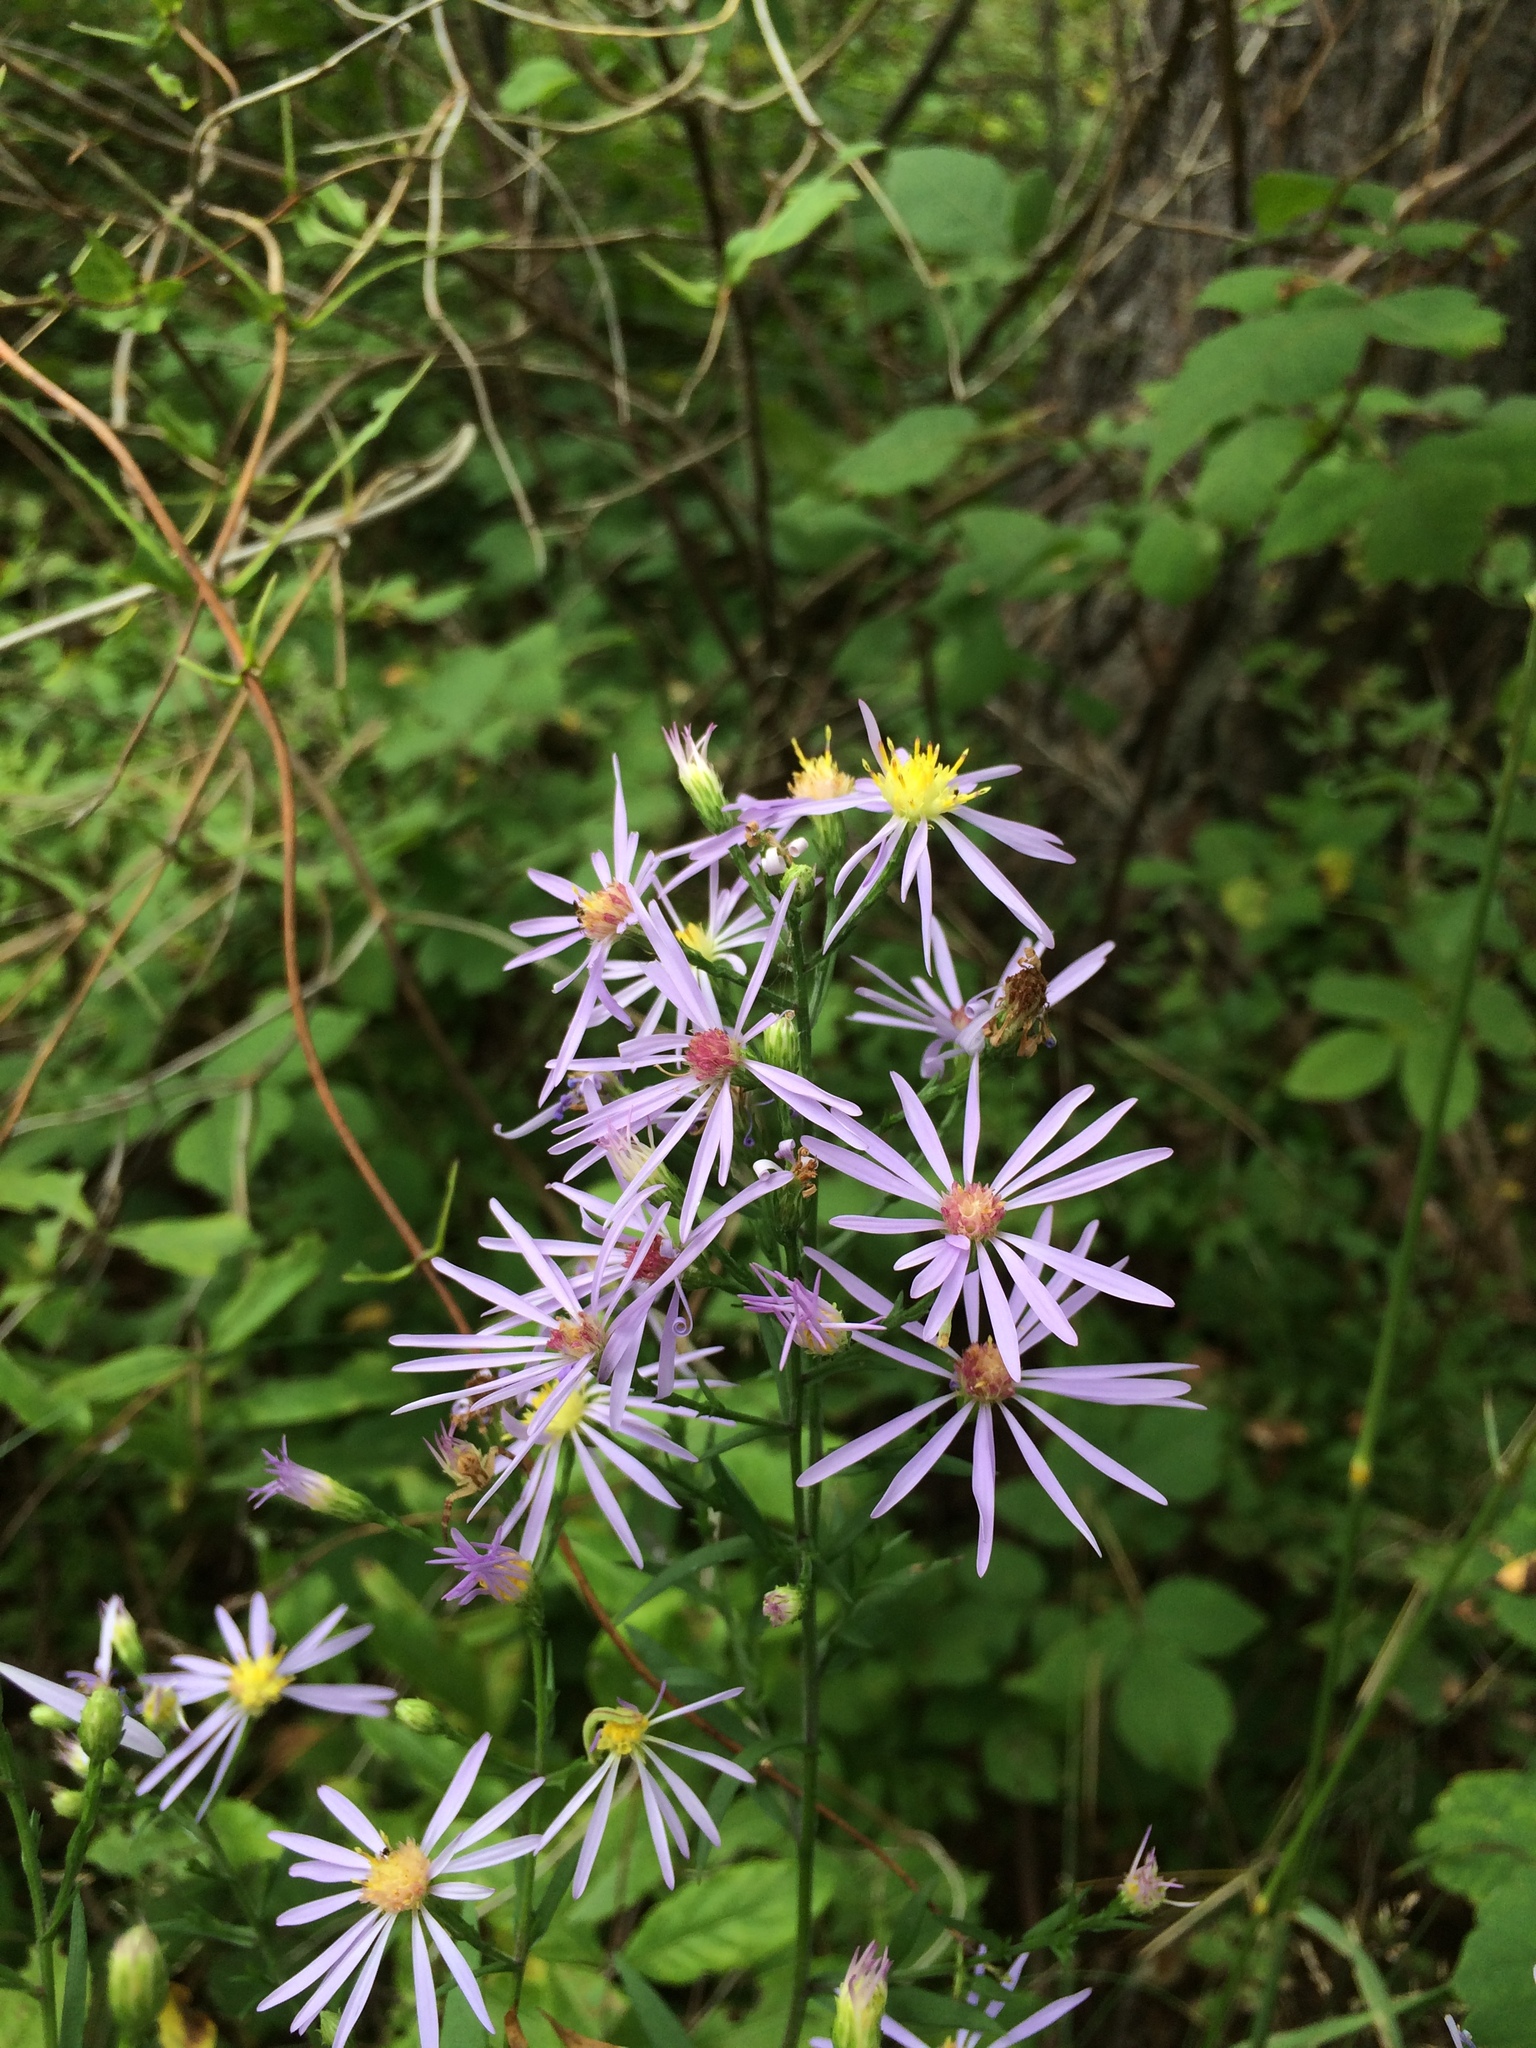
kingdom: Plantae
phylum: Tracheophyta
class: Magnoliopsida
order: Asterales
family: Asteraceae
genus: Symphyotrichum
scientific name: Symphyotrichum ciliolatum
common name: Fringed blue aster
